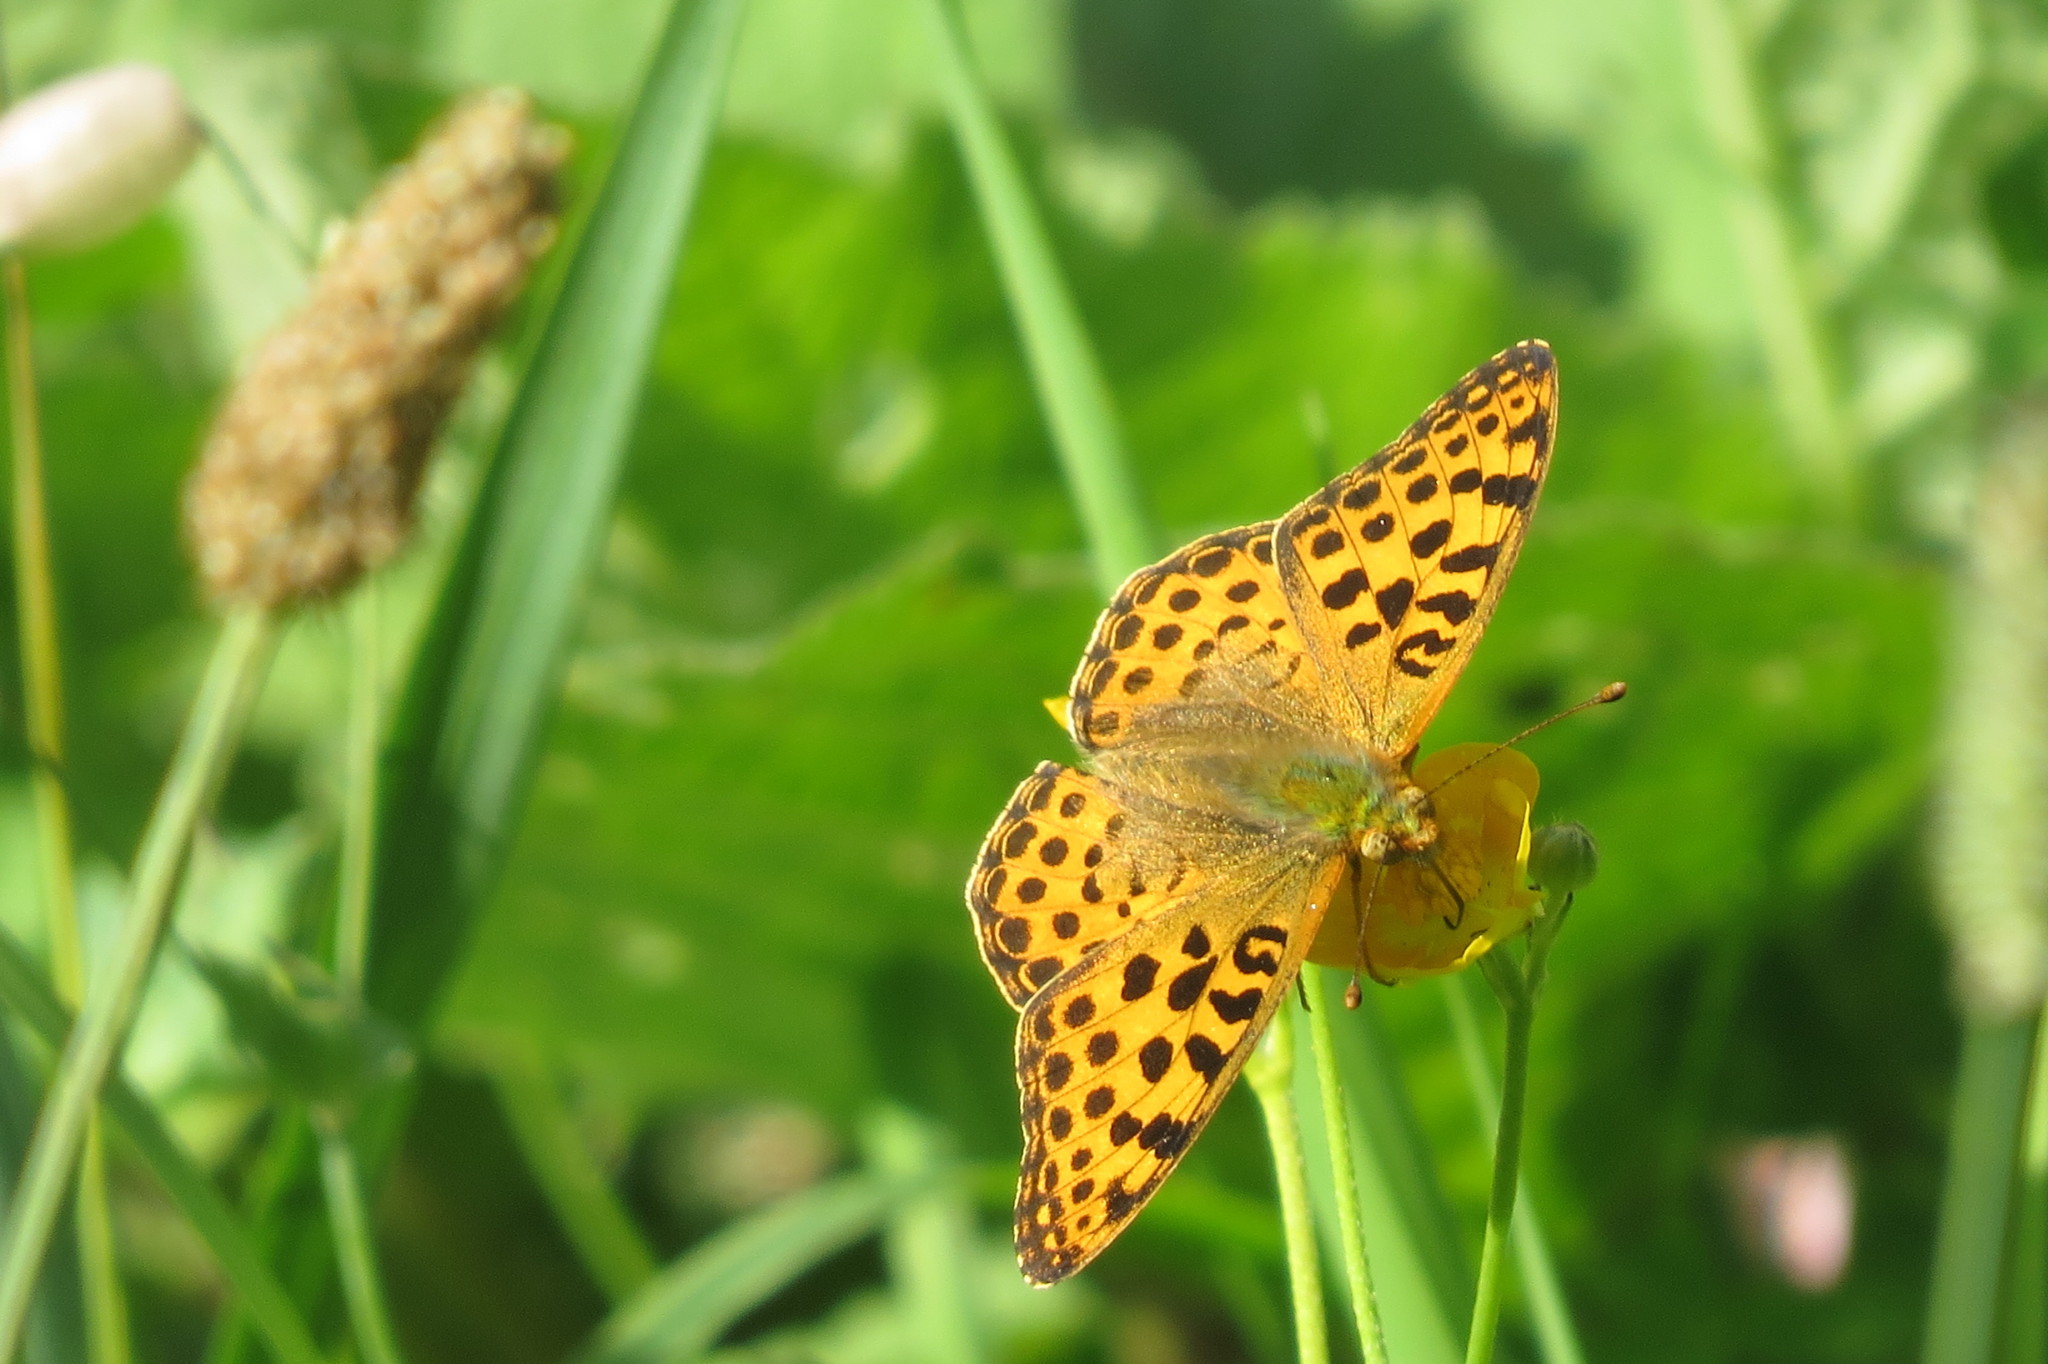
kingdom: Animalia
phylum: Arthropoda
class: Insecta
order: Lepidoptera
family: Nymphalidae
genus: Issoria
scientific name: Issoria lathonia
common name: Queen of spain fritillary
